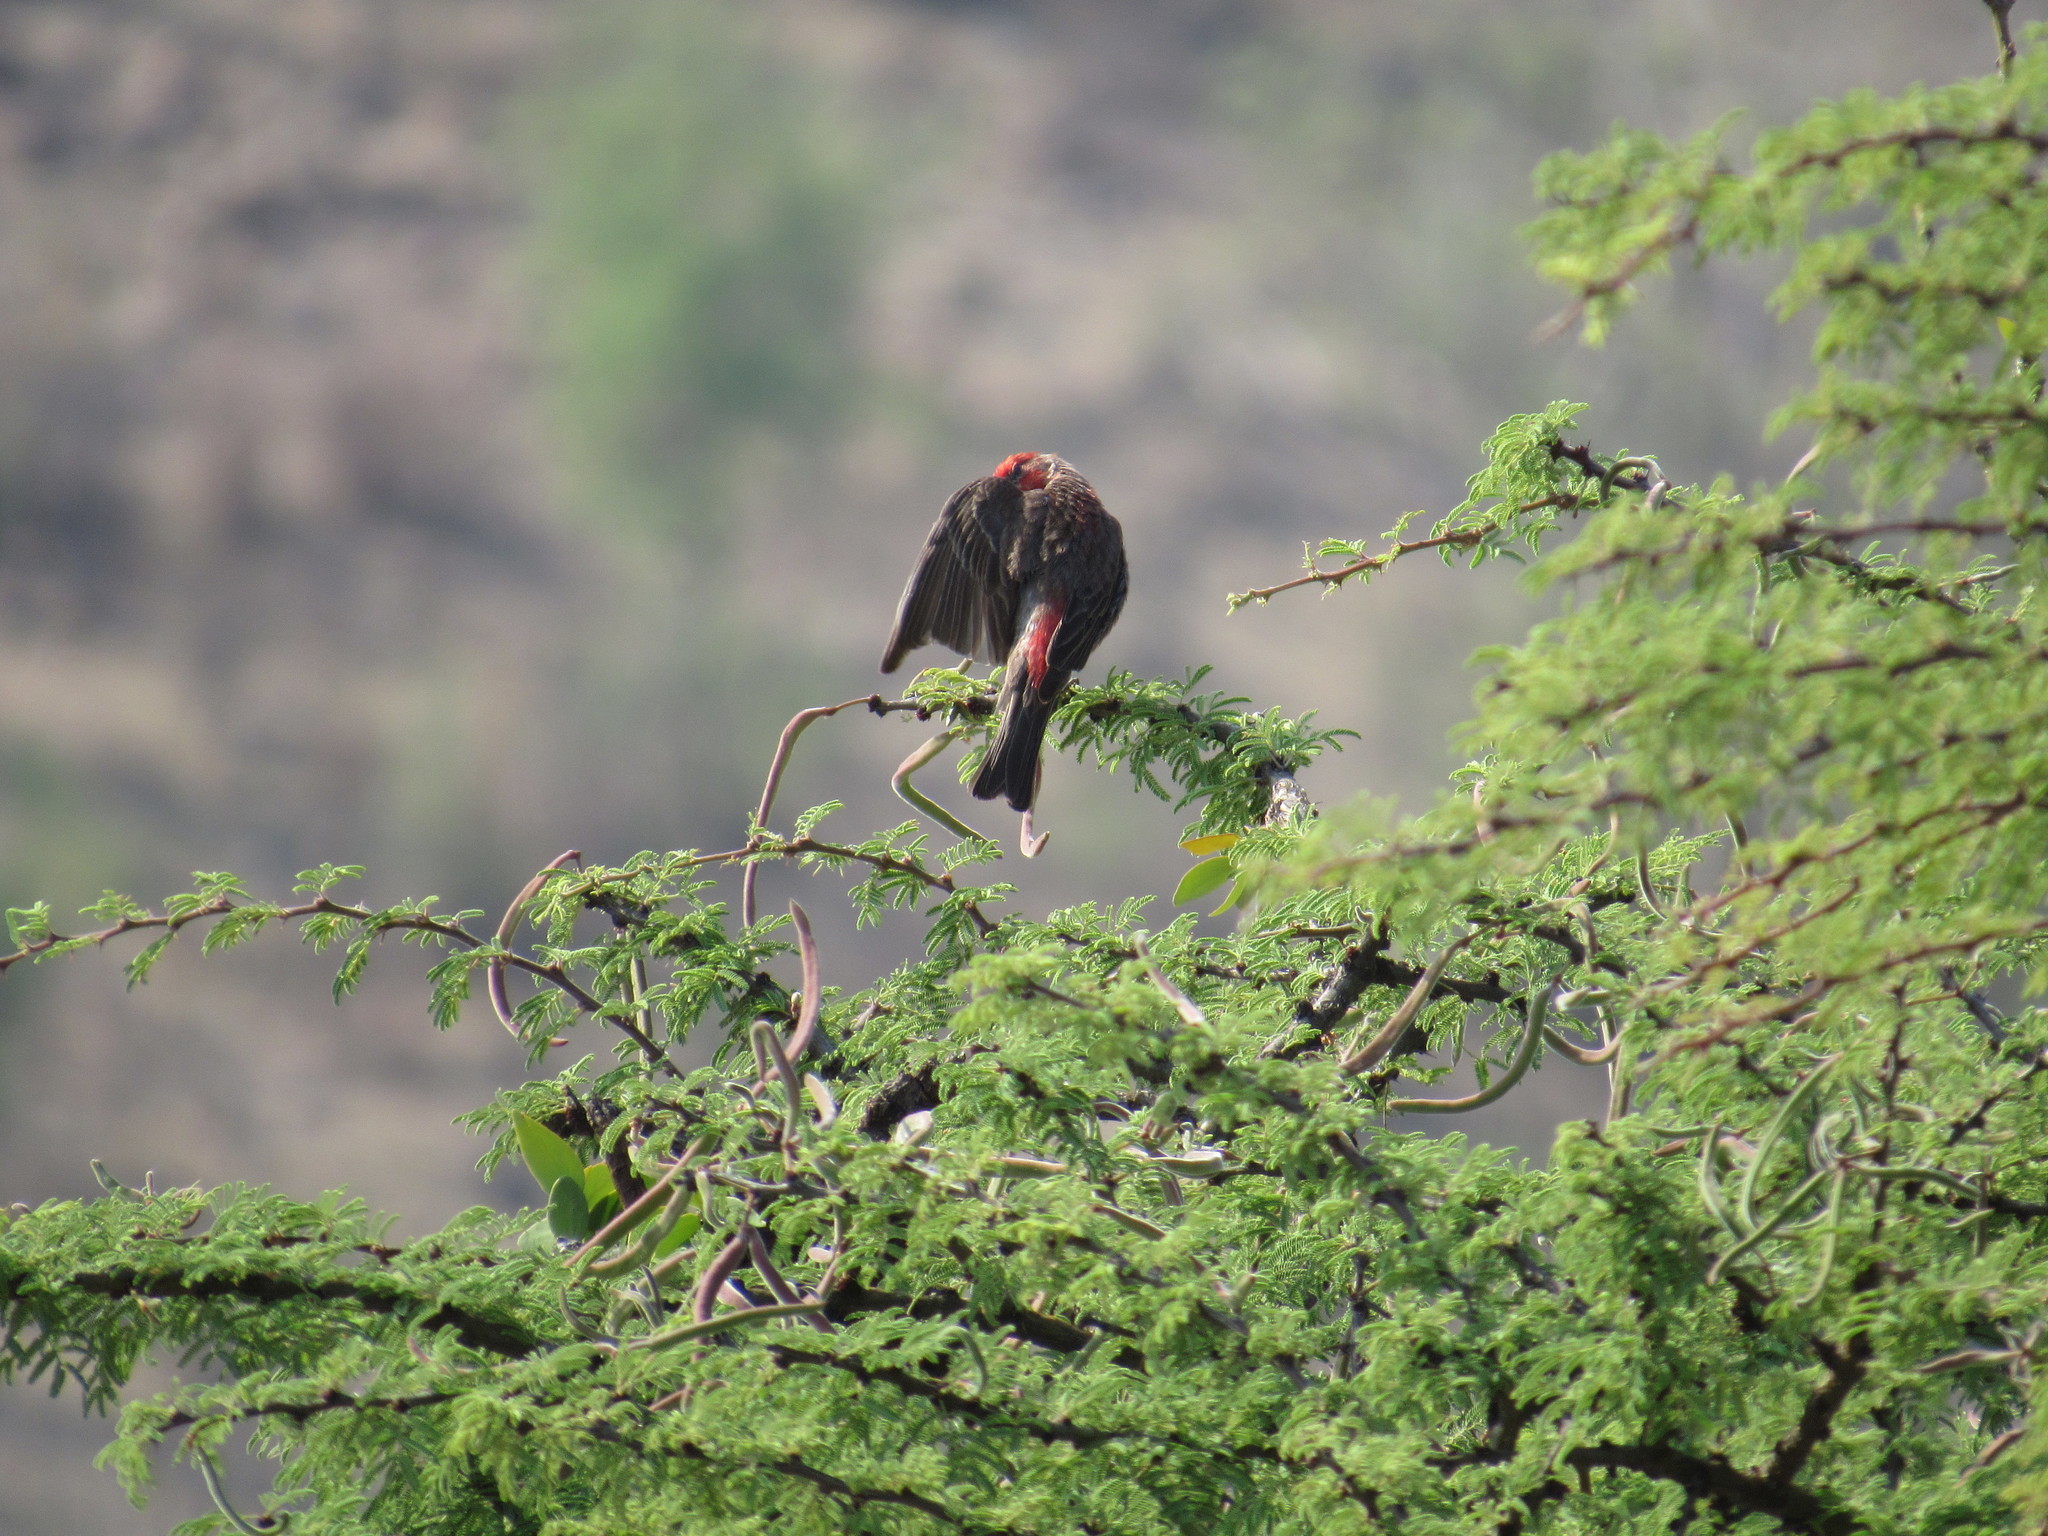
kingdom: Animalia
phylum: Chordata
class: Aves
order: Passeriformes
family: Fringillidae
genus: Haemorhous
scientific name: Haemorhous mexicanus
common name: House finch
